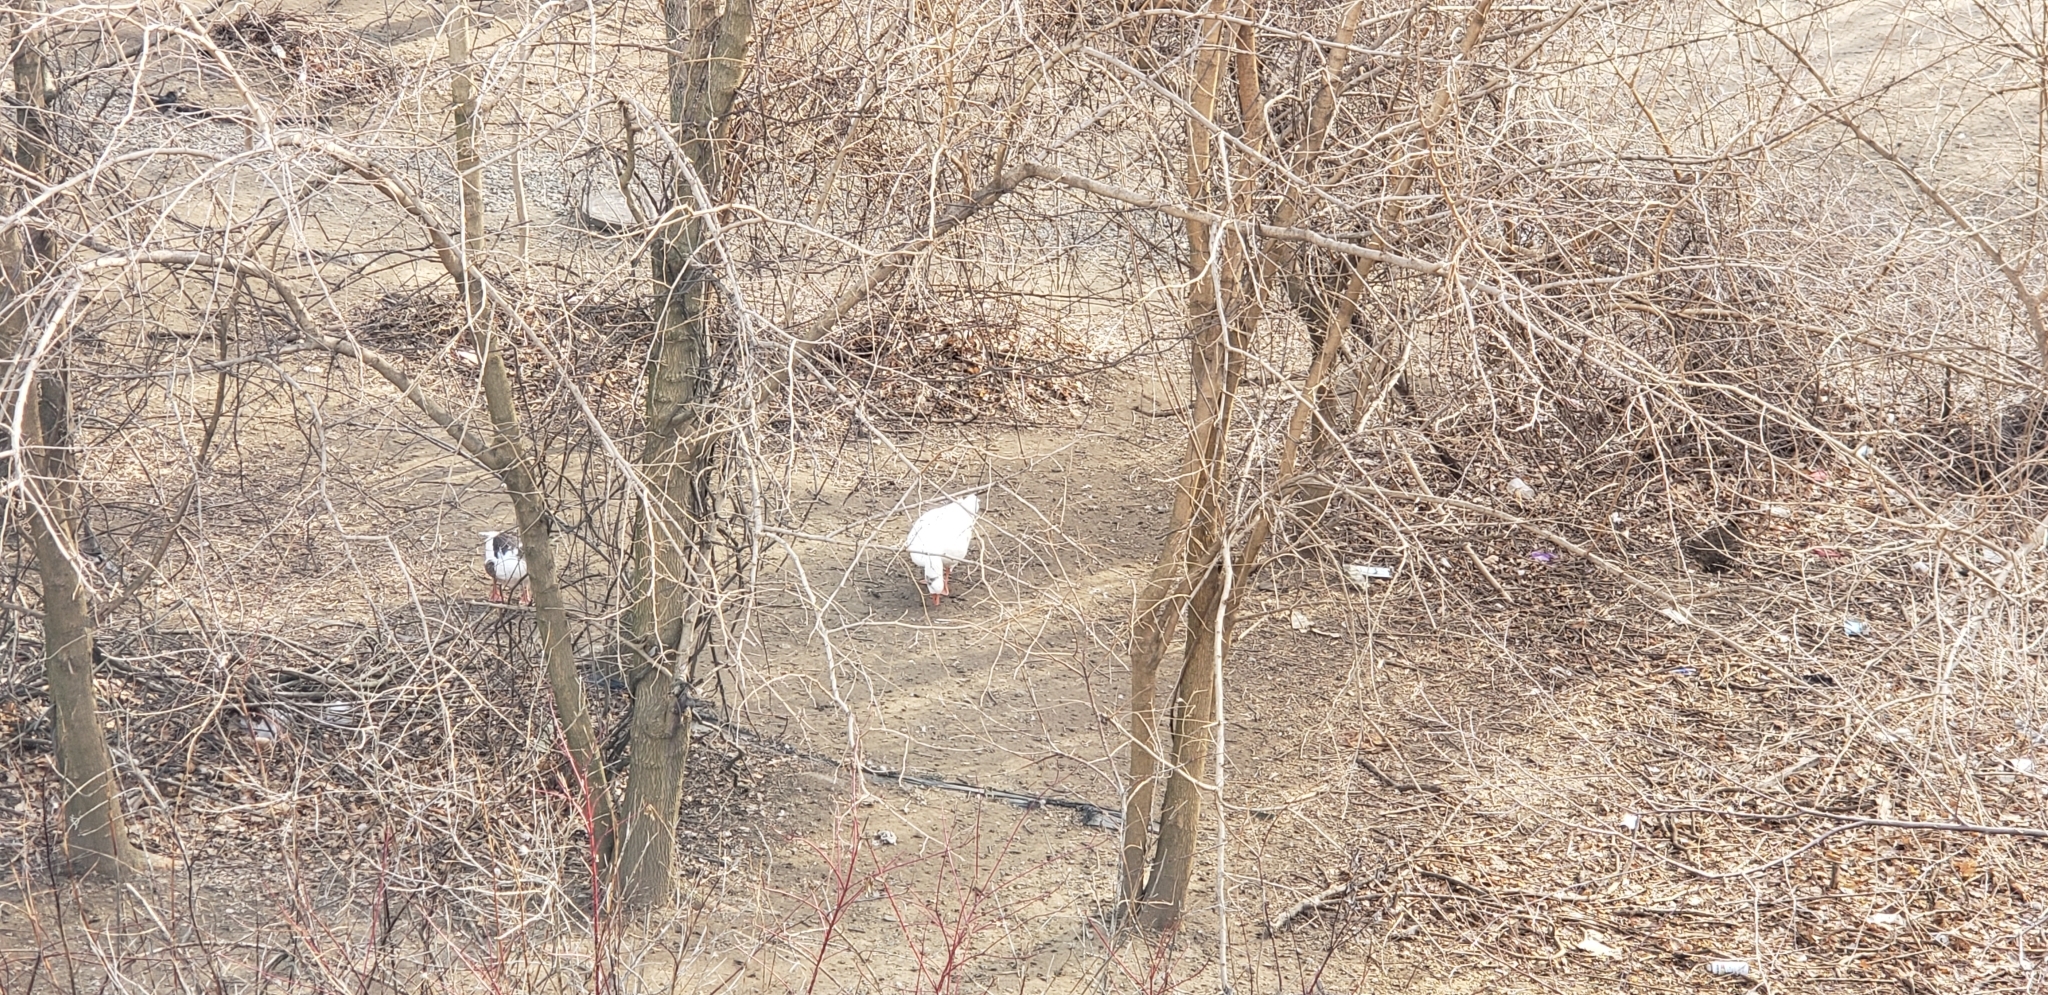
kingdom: Animalia
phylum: Chordata
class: Aves
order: Anseriformes
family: Anatidae
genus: Anser
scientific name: Anser anser
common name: Greylag goose
